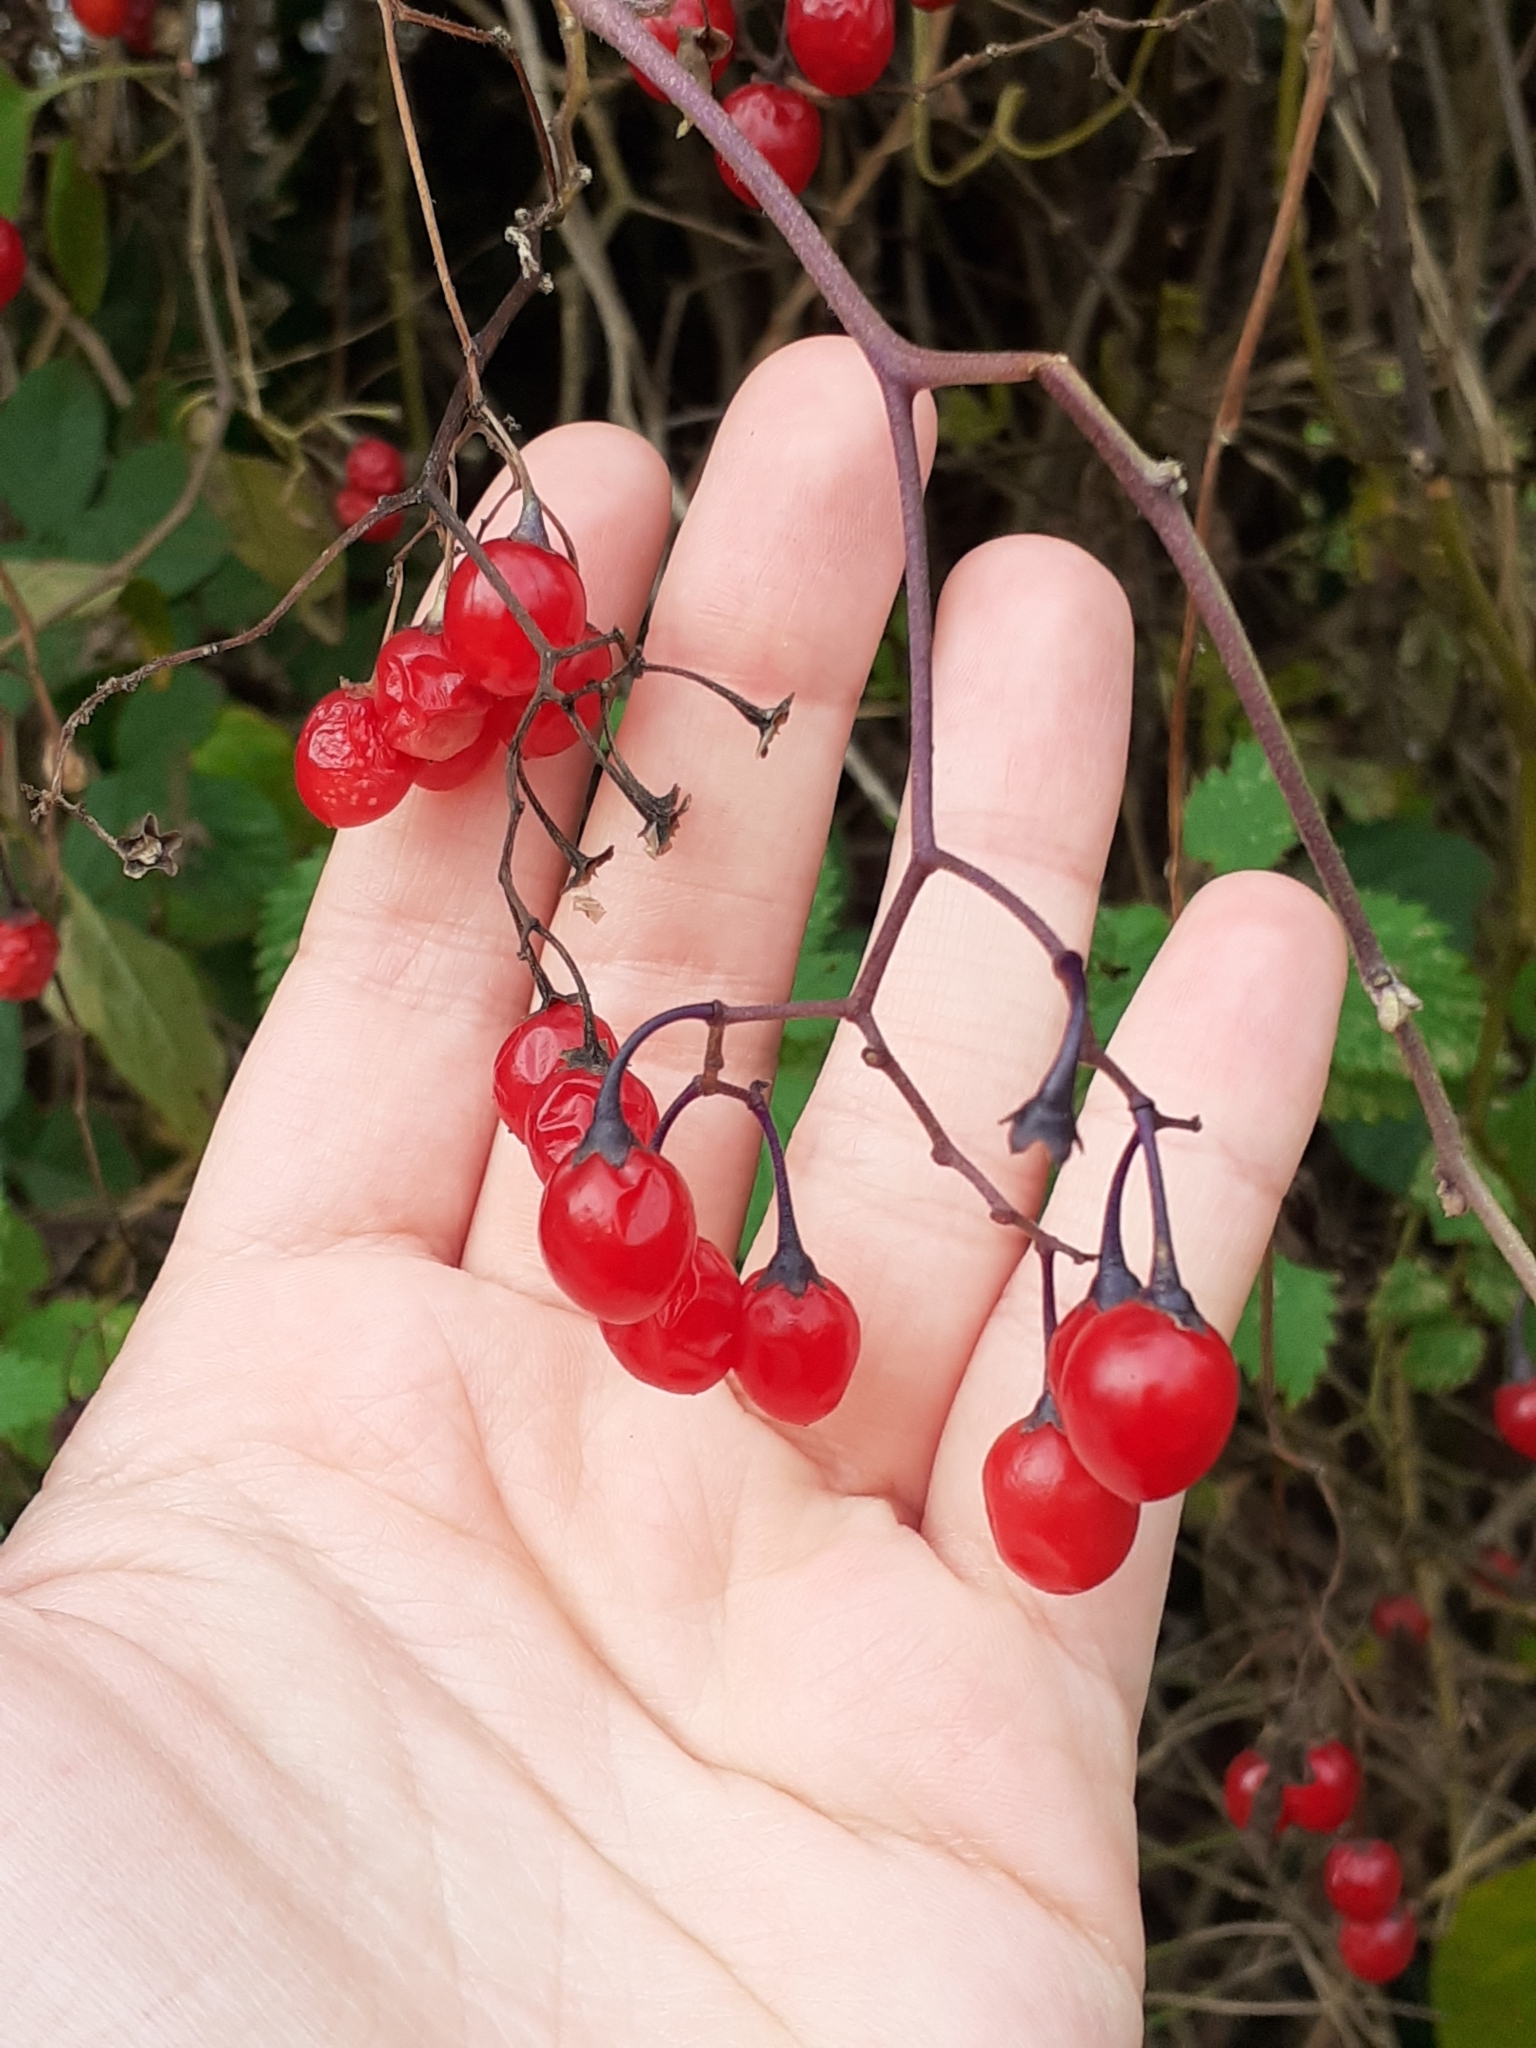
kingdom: Plantae
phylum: Tracheophyta
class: Magnoliopsida
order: Solanales
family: Solanaceae
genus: Solanum
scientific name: Solanum dulcamara
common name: Climbing nightshade
